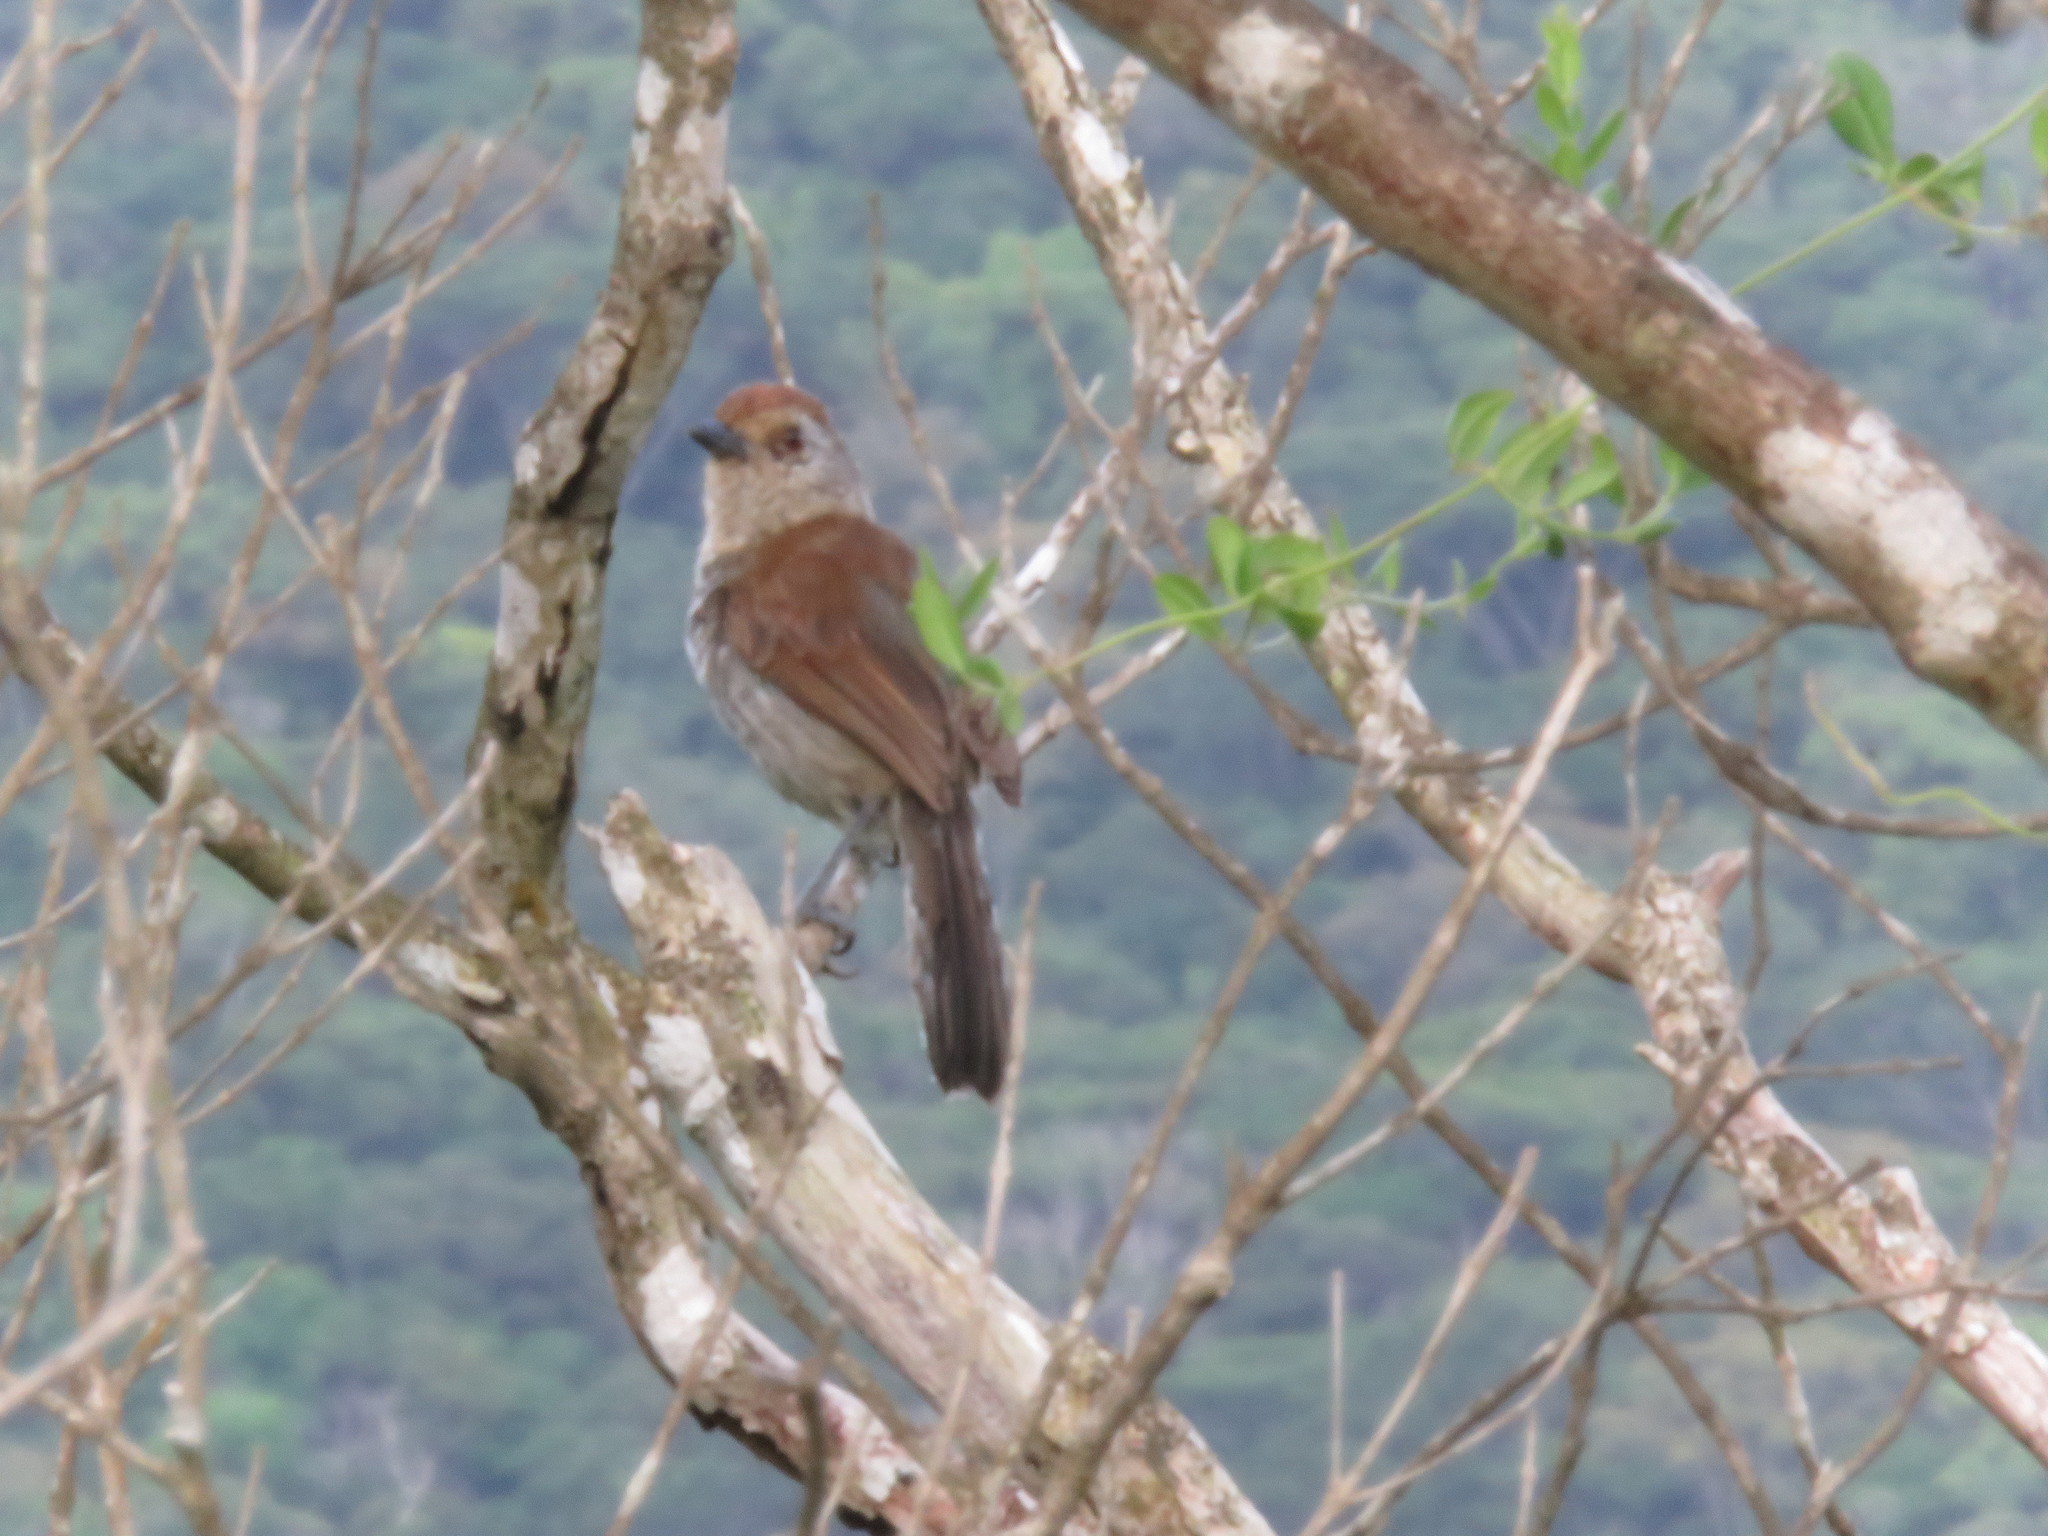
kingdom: Animalia
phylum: Chordata
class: Aves
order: Passeriformes
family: Thamnophilidae
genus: Thamnophilus
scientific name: Thamnophilus ruficapillus
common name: Rufous-capped antshrike
